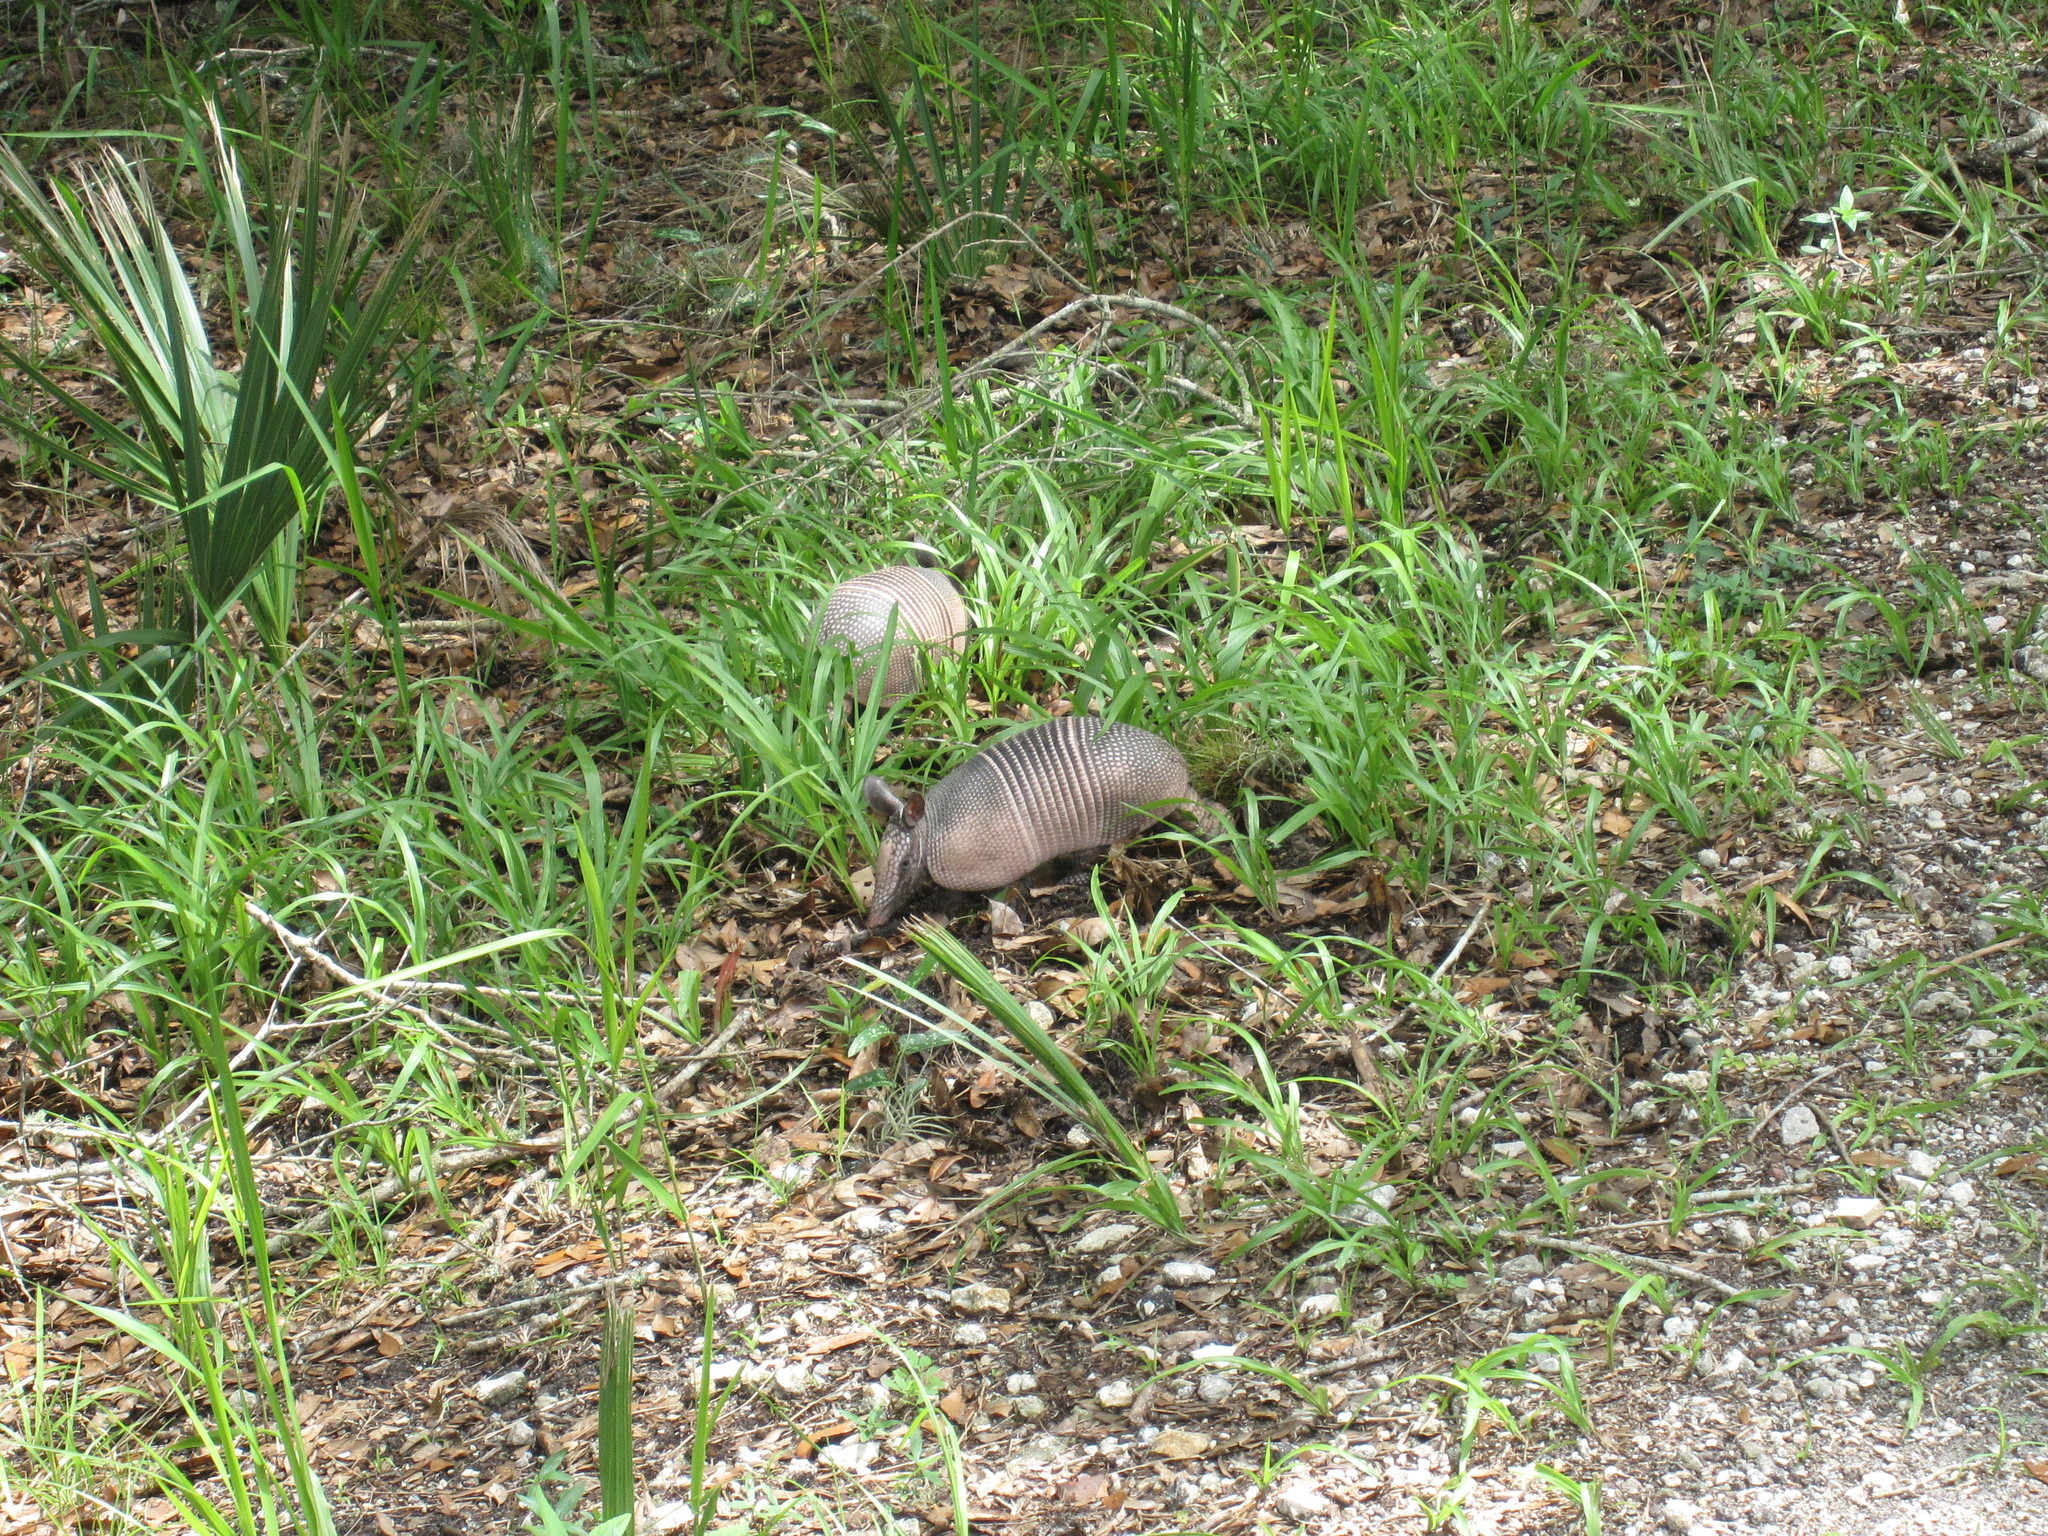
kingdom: Animalia
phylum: Chordata
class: Mammalia
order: Cingulata
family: Dasypodidae
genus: Dasypus
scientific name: Dasypus novemcinctus
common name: Nine-banded armadillo
